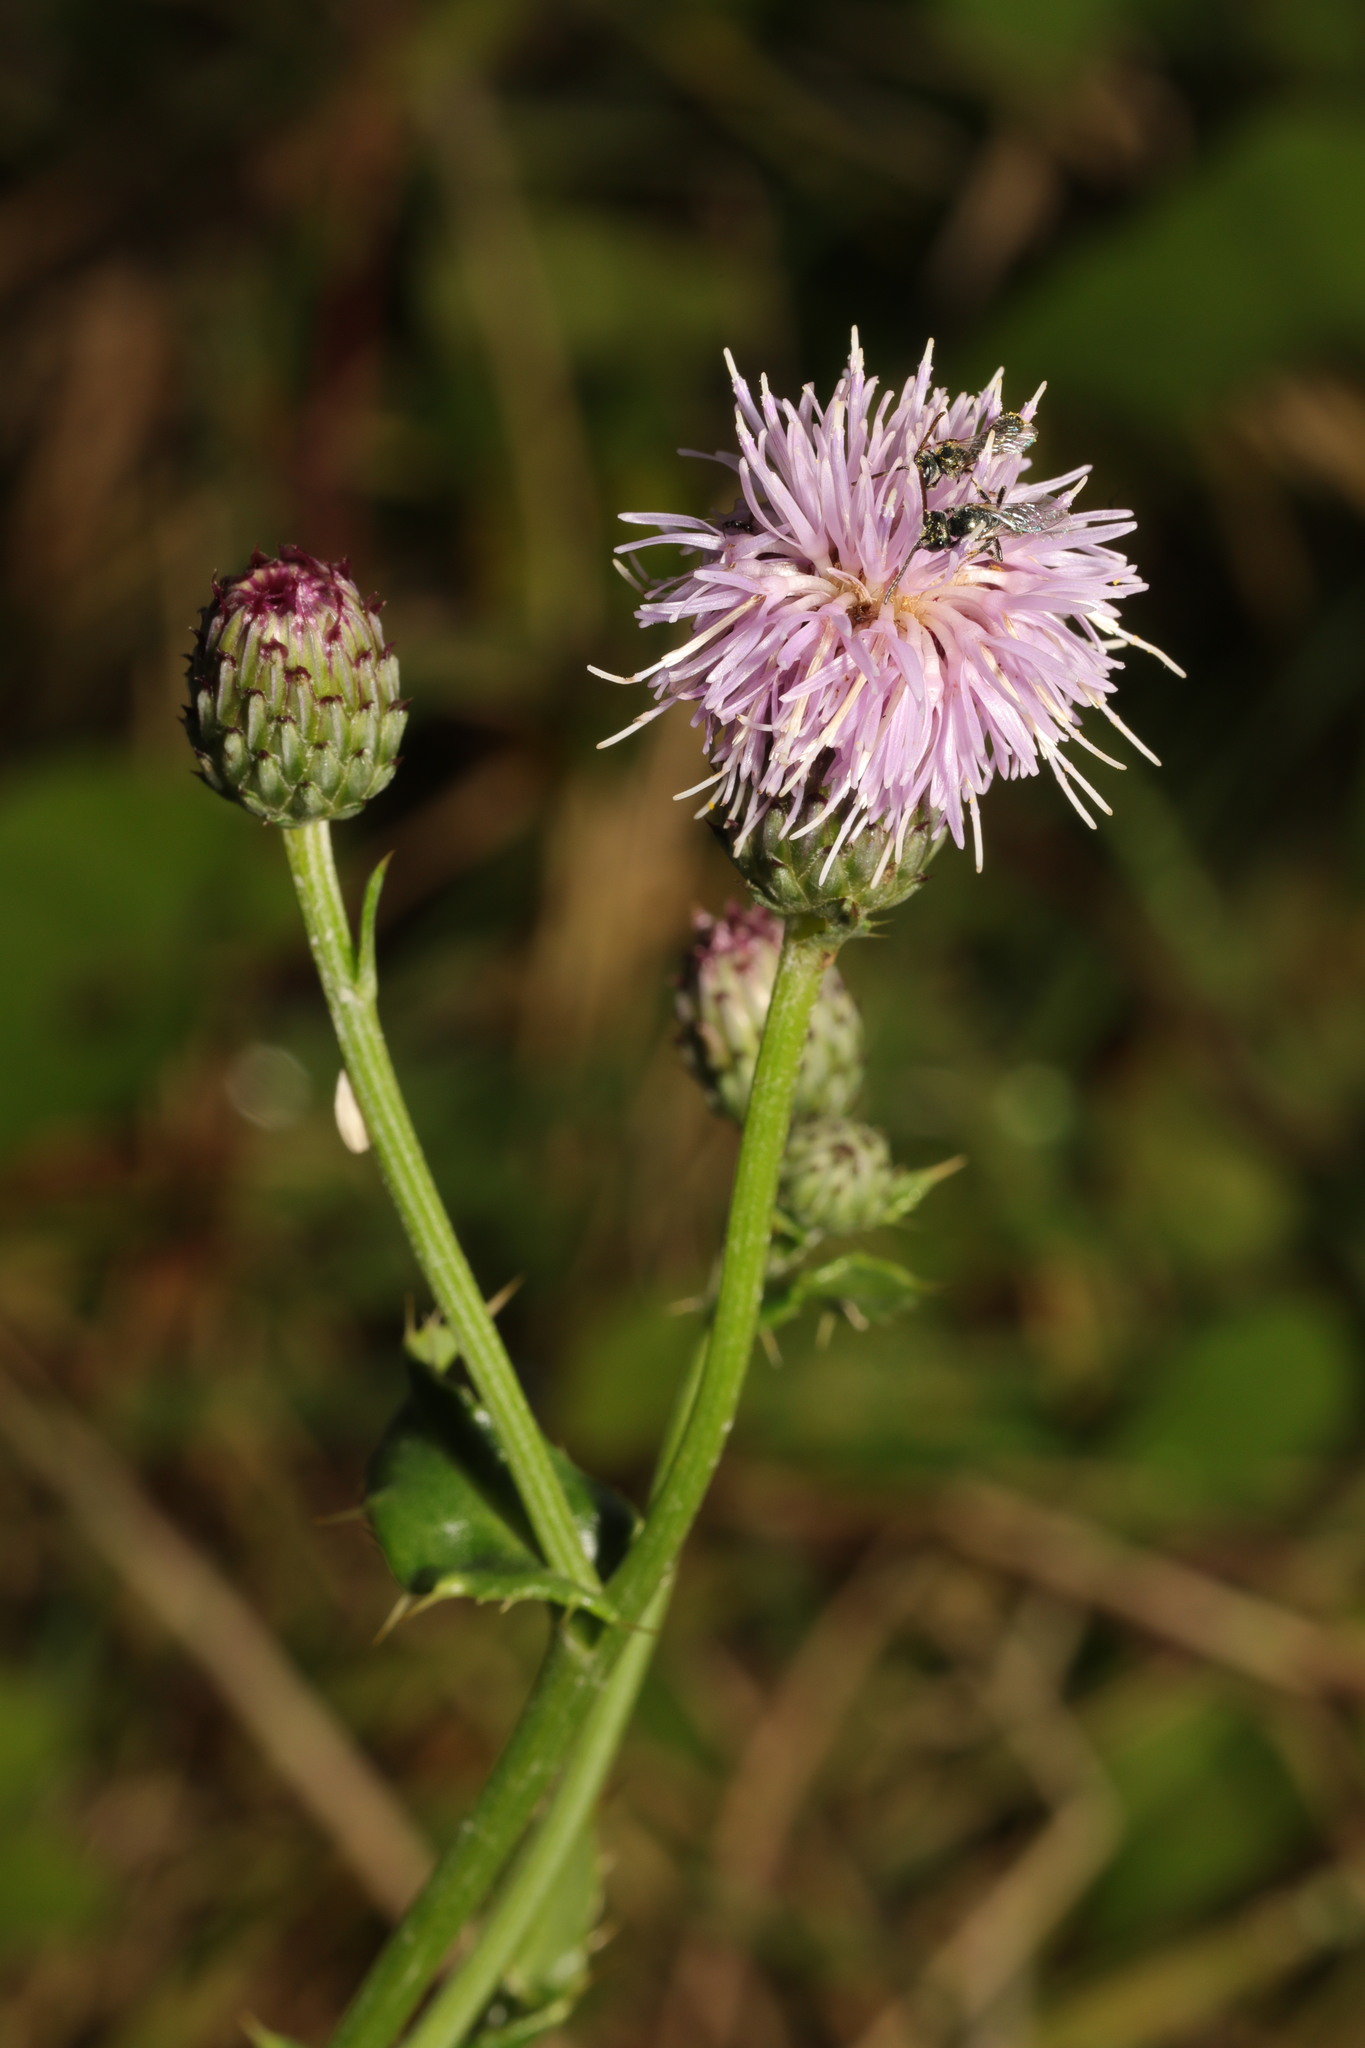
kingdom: Plantae
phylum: Tracheophyta
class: Magnoliopsida
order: Asterales
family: Asteraceae
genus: Cirsium
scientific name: Cirsium arvense
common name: Creeping thistle
